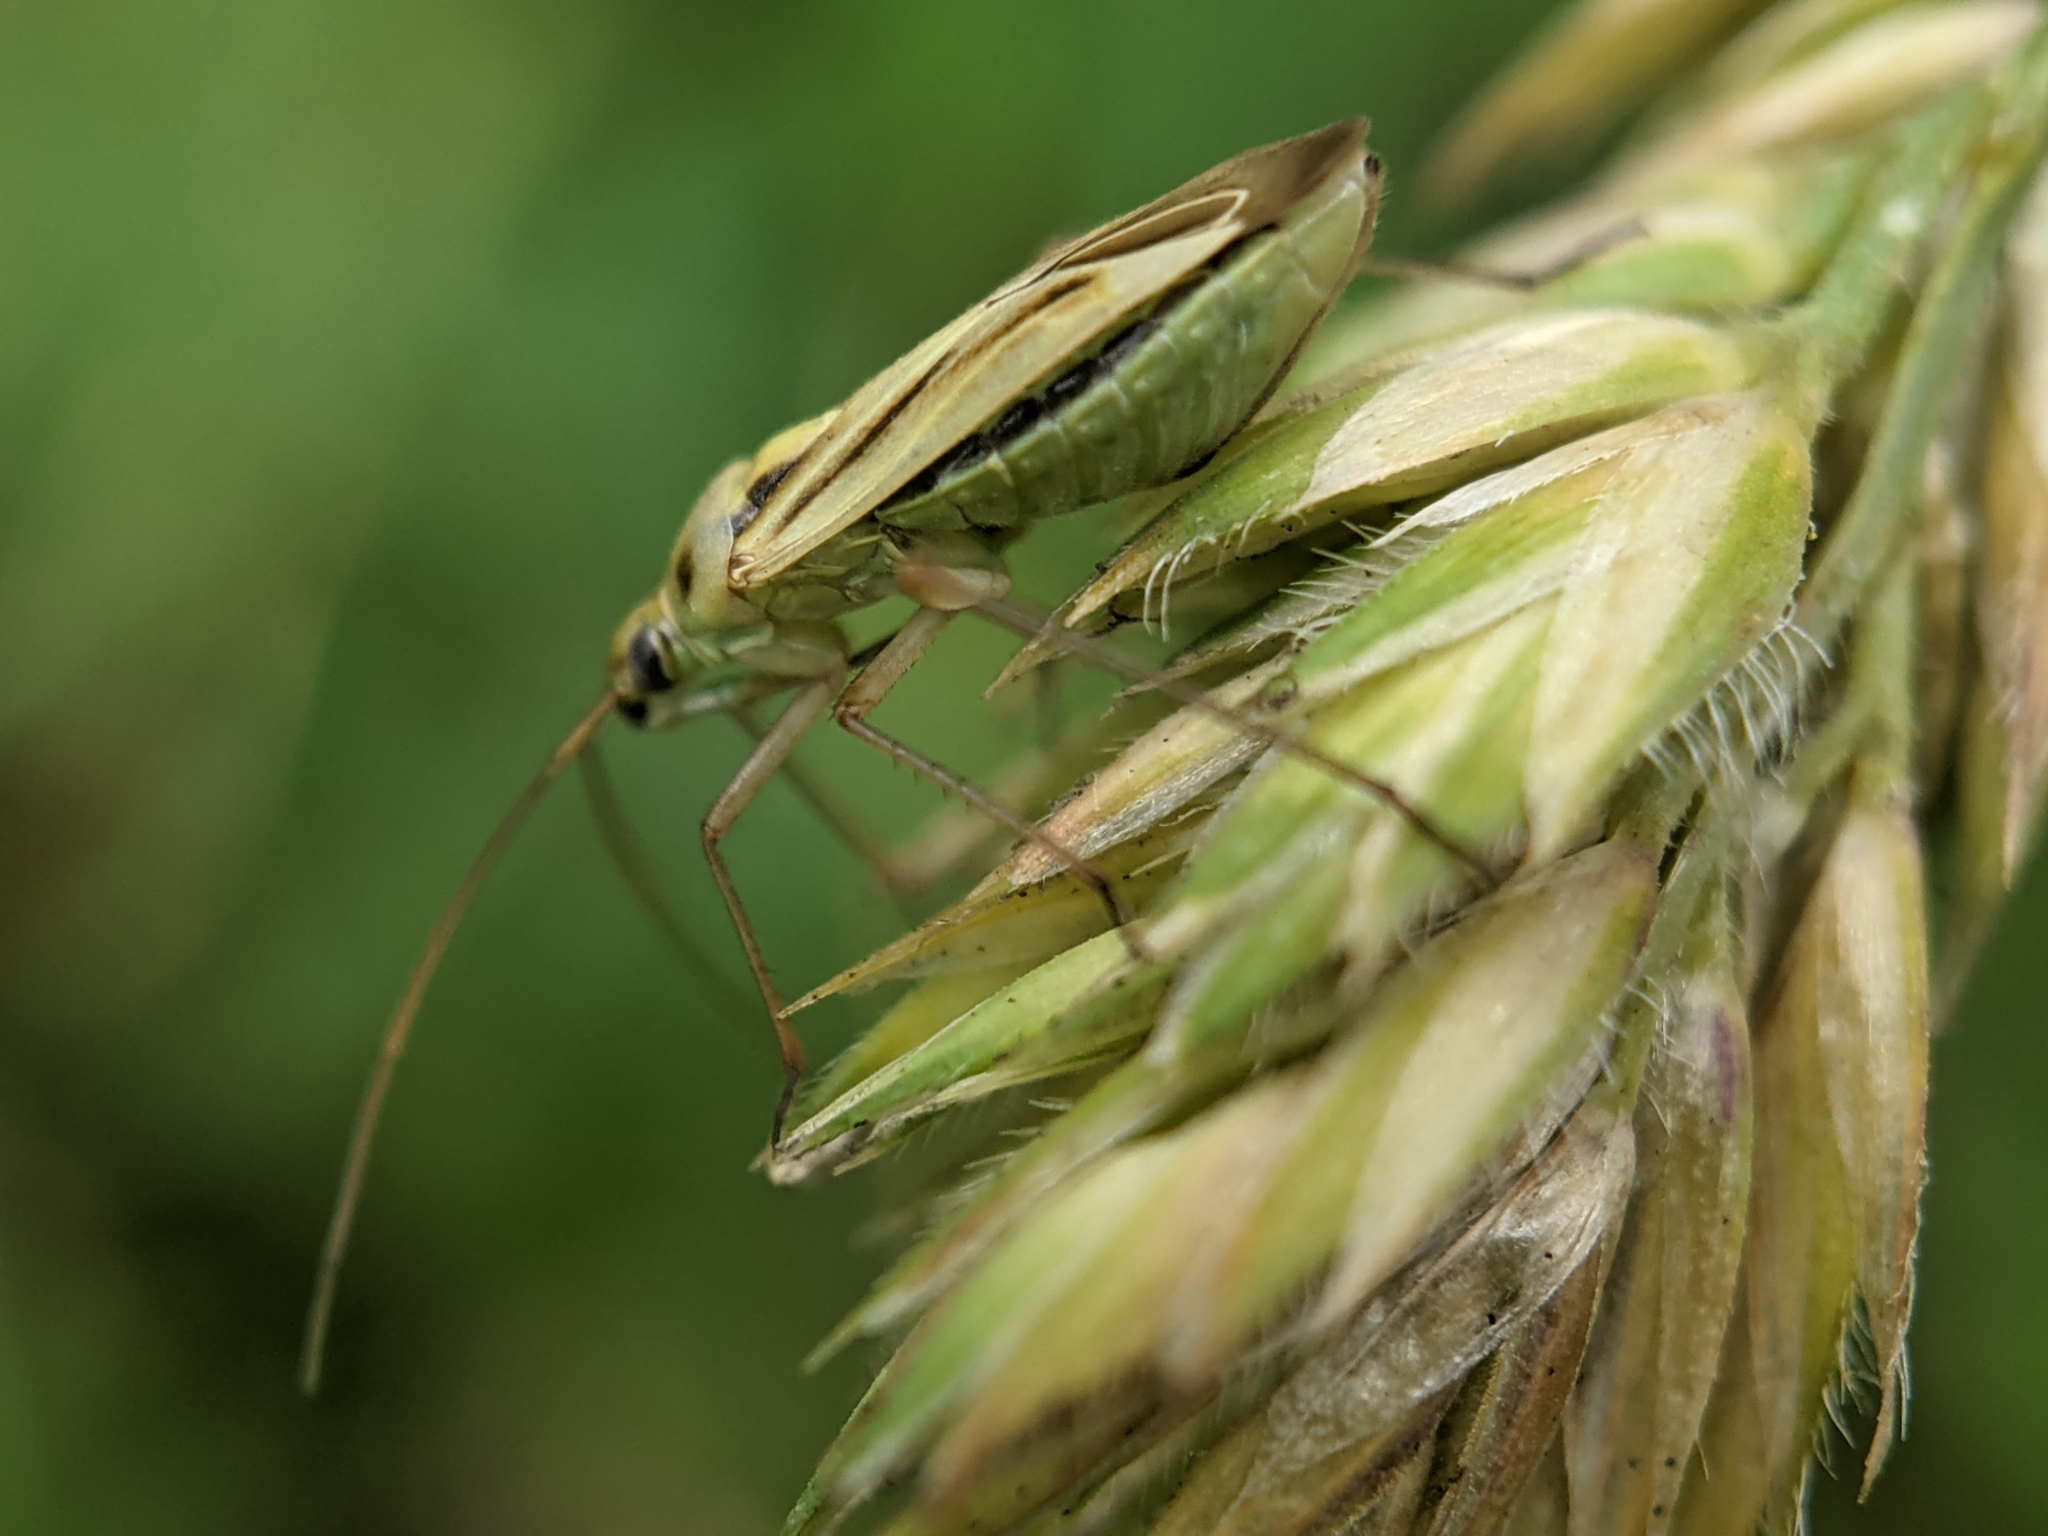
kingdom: Animalia
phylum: Arthropoda
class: Insecta
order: Hemiptera
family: Miridae
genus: Stenotus
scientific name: Stenotus binotatus
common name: Plant bug
